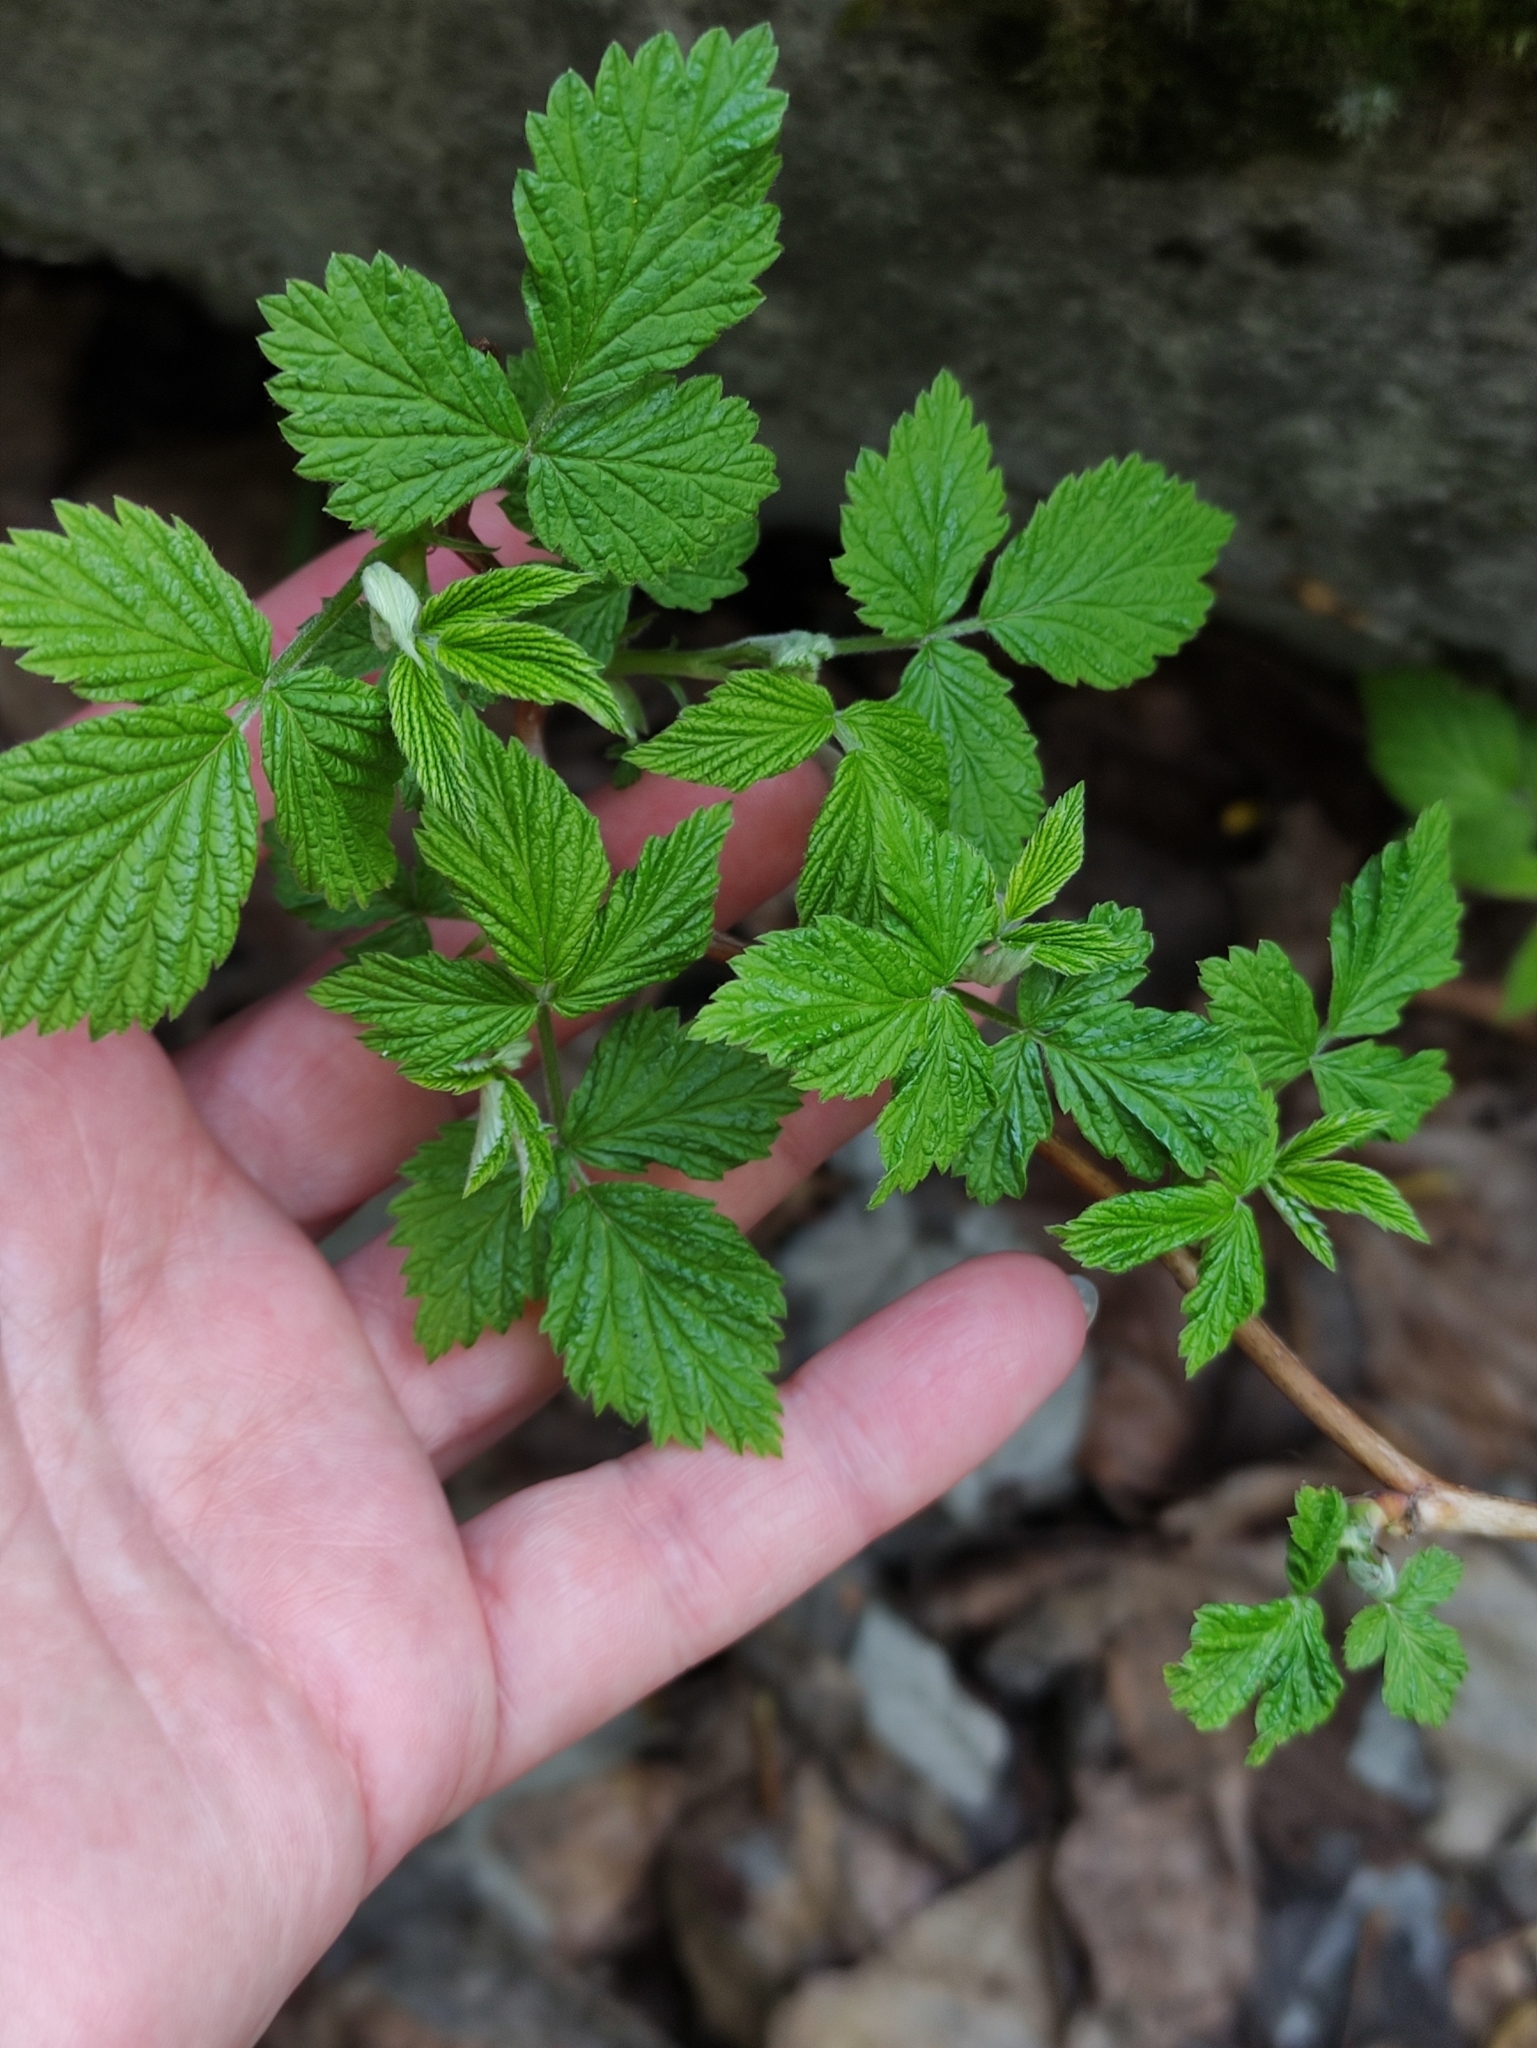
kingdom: Plantae
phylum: Tracheophyta
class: Magnoliopsida
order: Rosales
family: Rosaceae
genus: Rubus
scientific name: Rubus idaeus
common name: Raspberry
